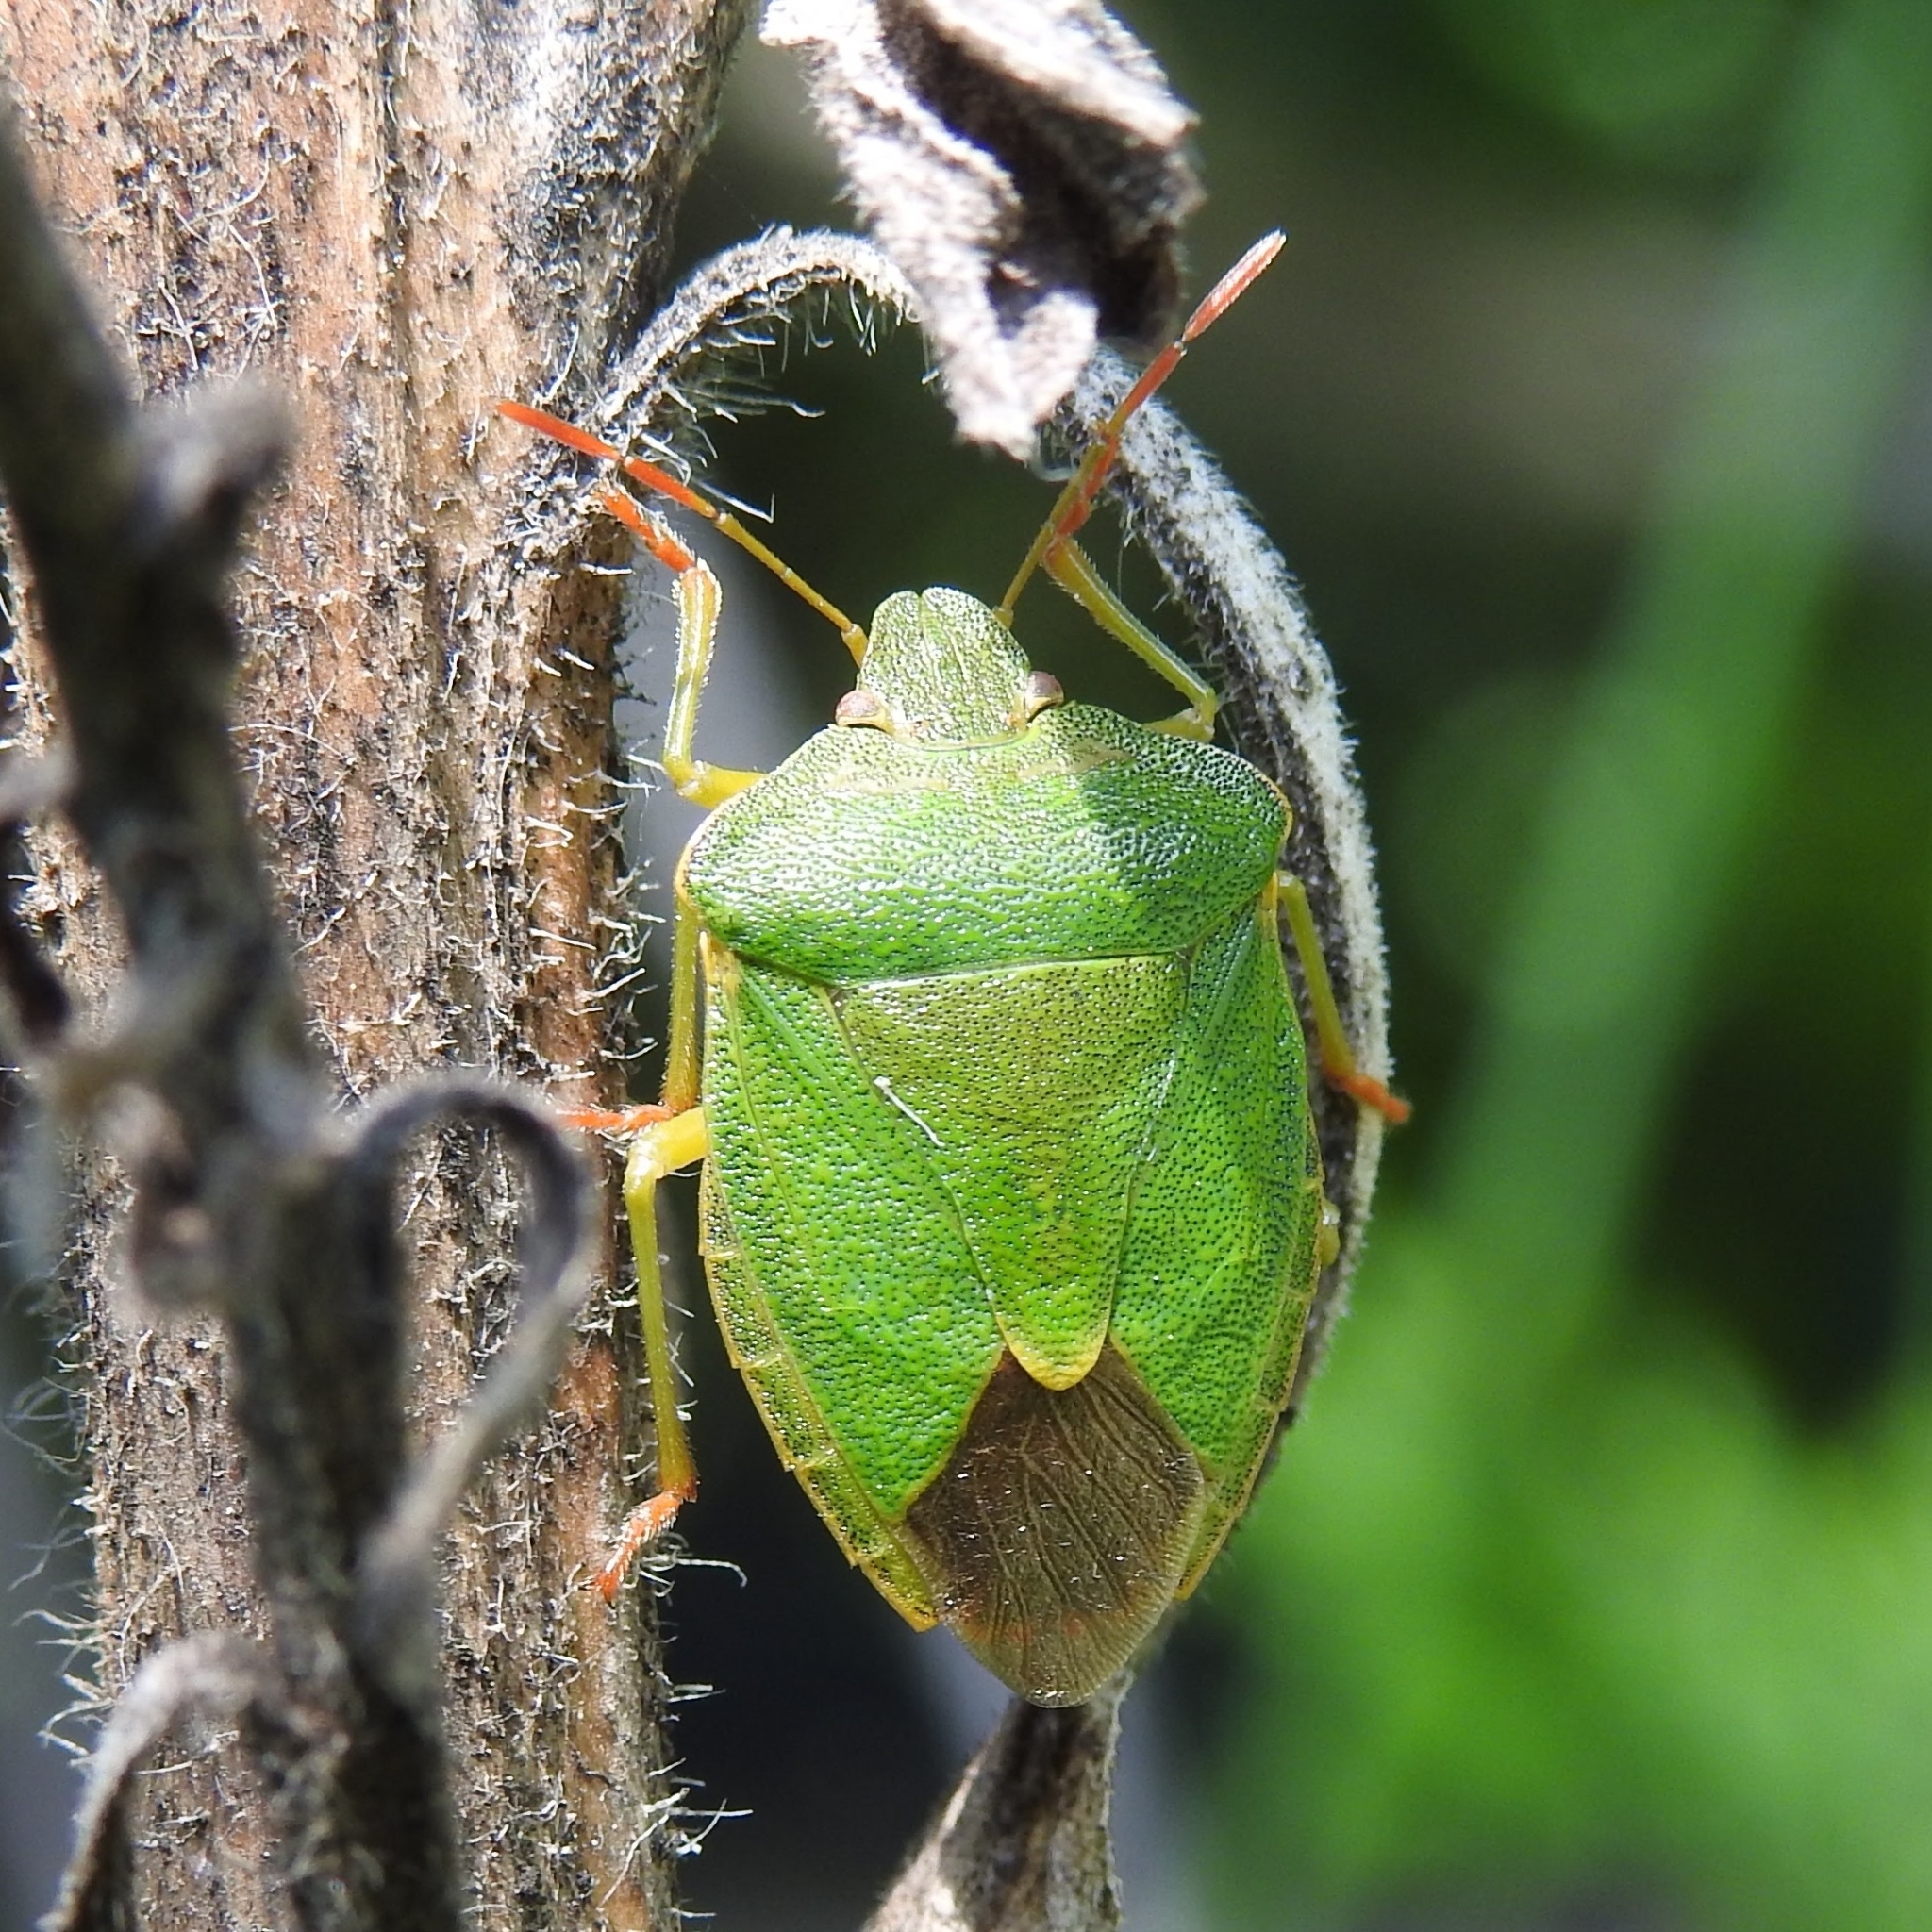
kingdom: Animalia
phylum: Arthropoda
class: Insecta
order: Hemiptera
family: Pentatomidae
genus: Palomena
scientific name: Palomena prasina
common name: Green shieldbug
